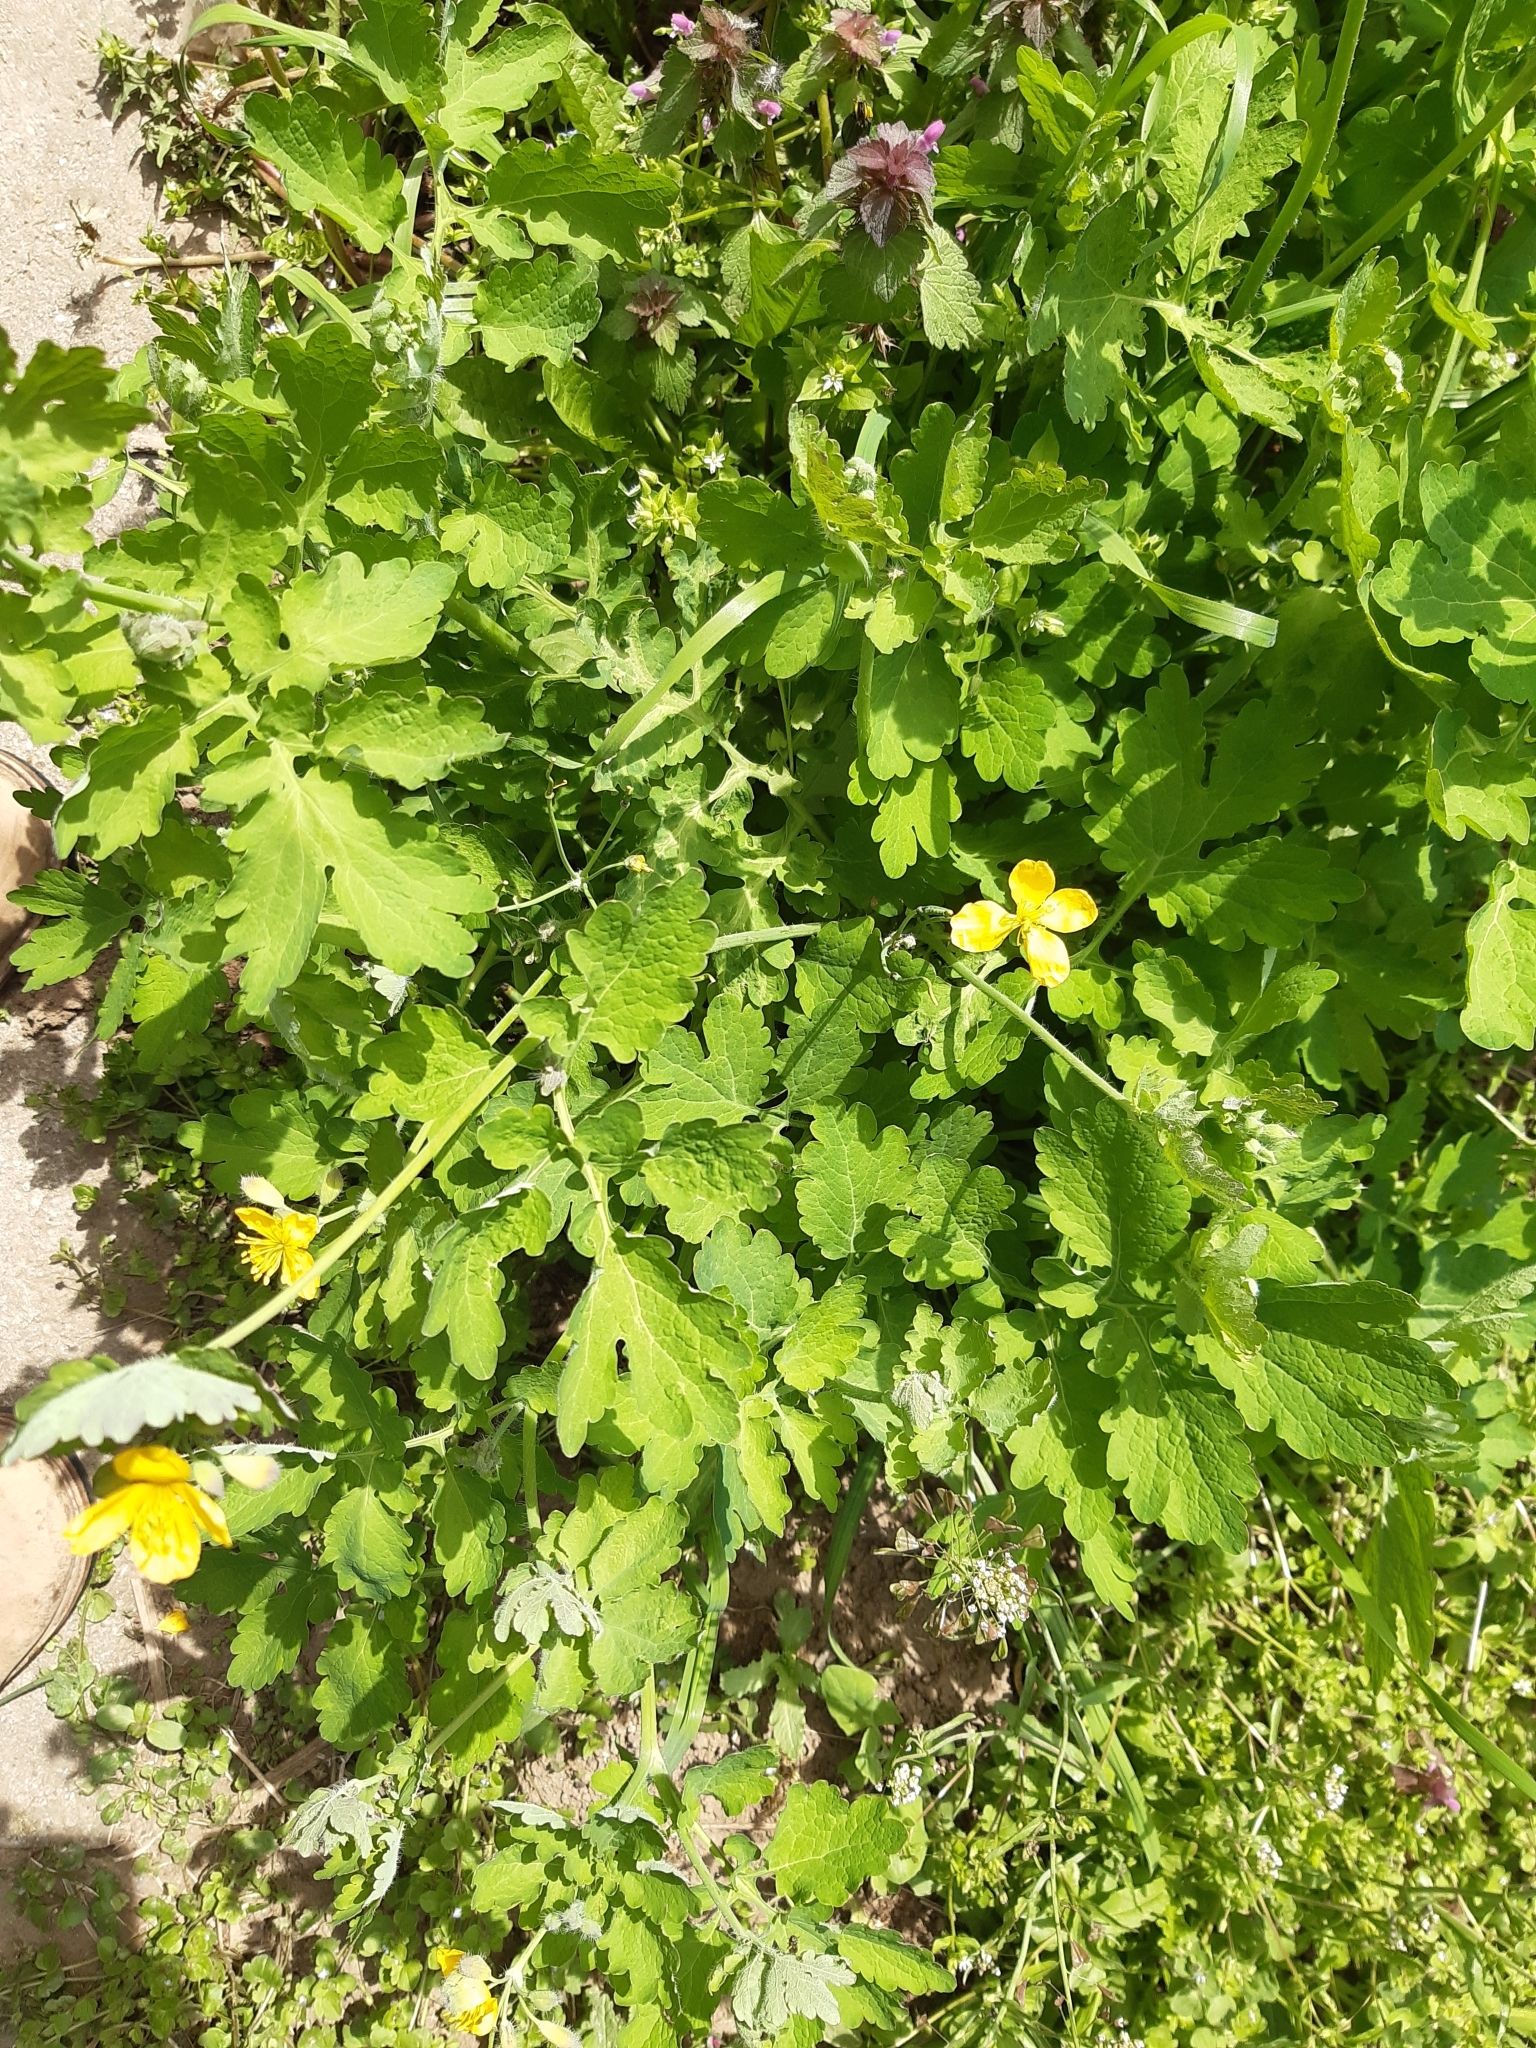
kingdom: Plantae
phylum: Tracheophyta
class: Magnoliopsida
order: Ranunculales
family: Papaveraceae
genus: Chelidonium
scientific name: Chelidonium majus
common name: Greater celandine
